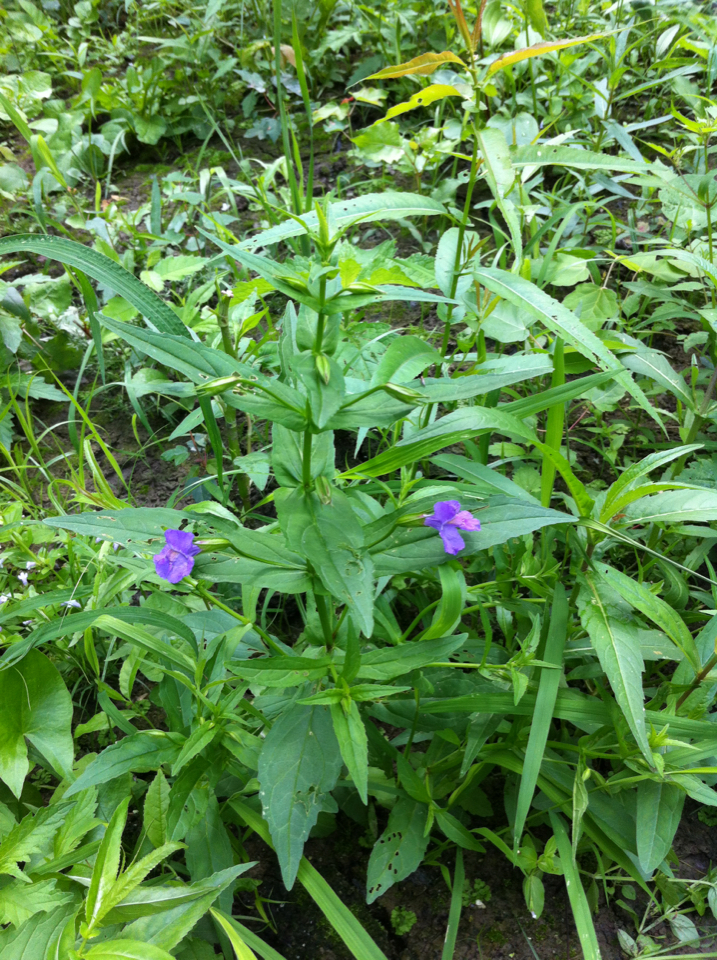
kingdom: Plantae
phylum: Tracheophyta
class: Magnoliopsida
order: Lamiales
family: Phrymaceae
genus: Mimulus
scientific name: Mimulus ringens
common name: Allegheny monkeyflower
